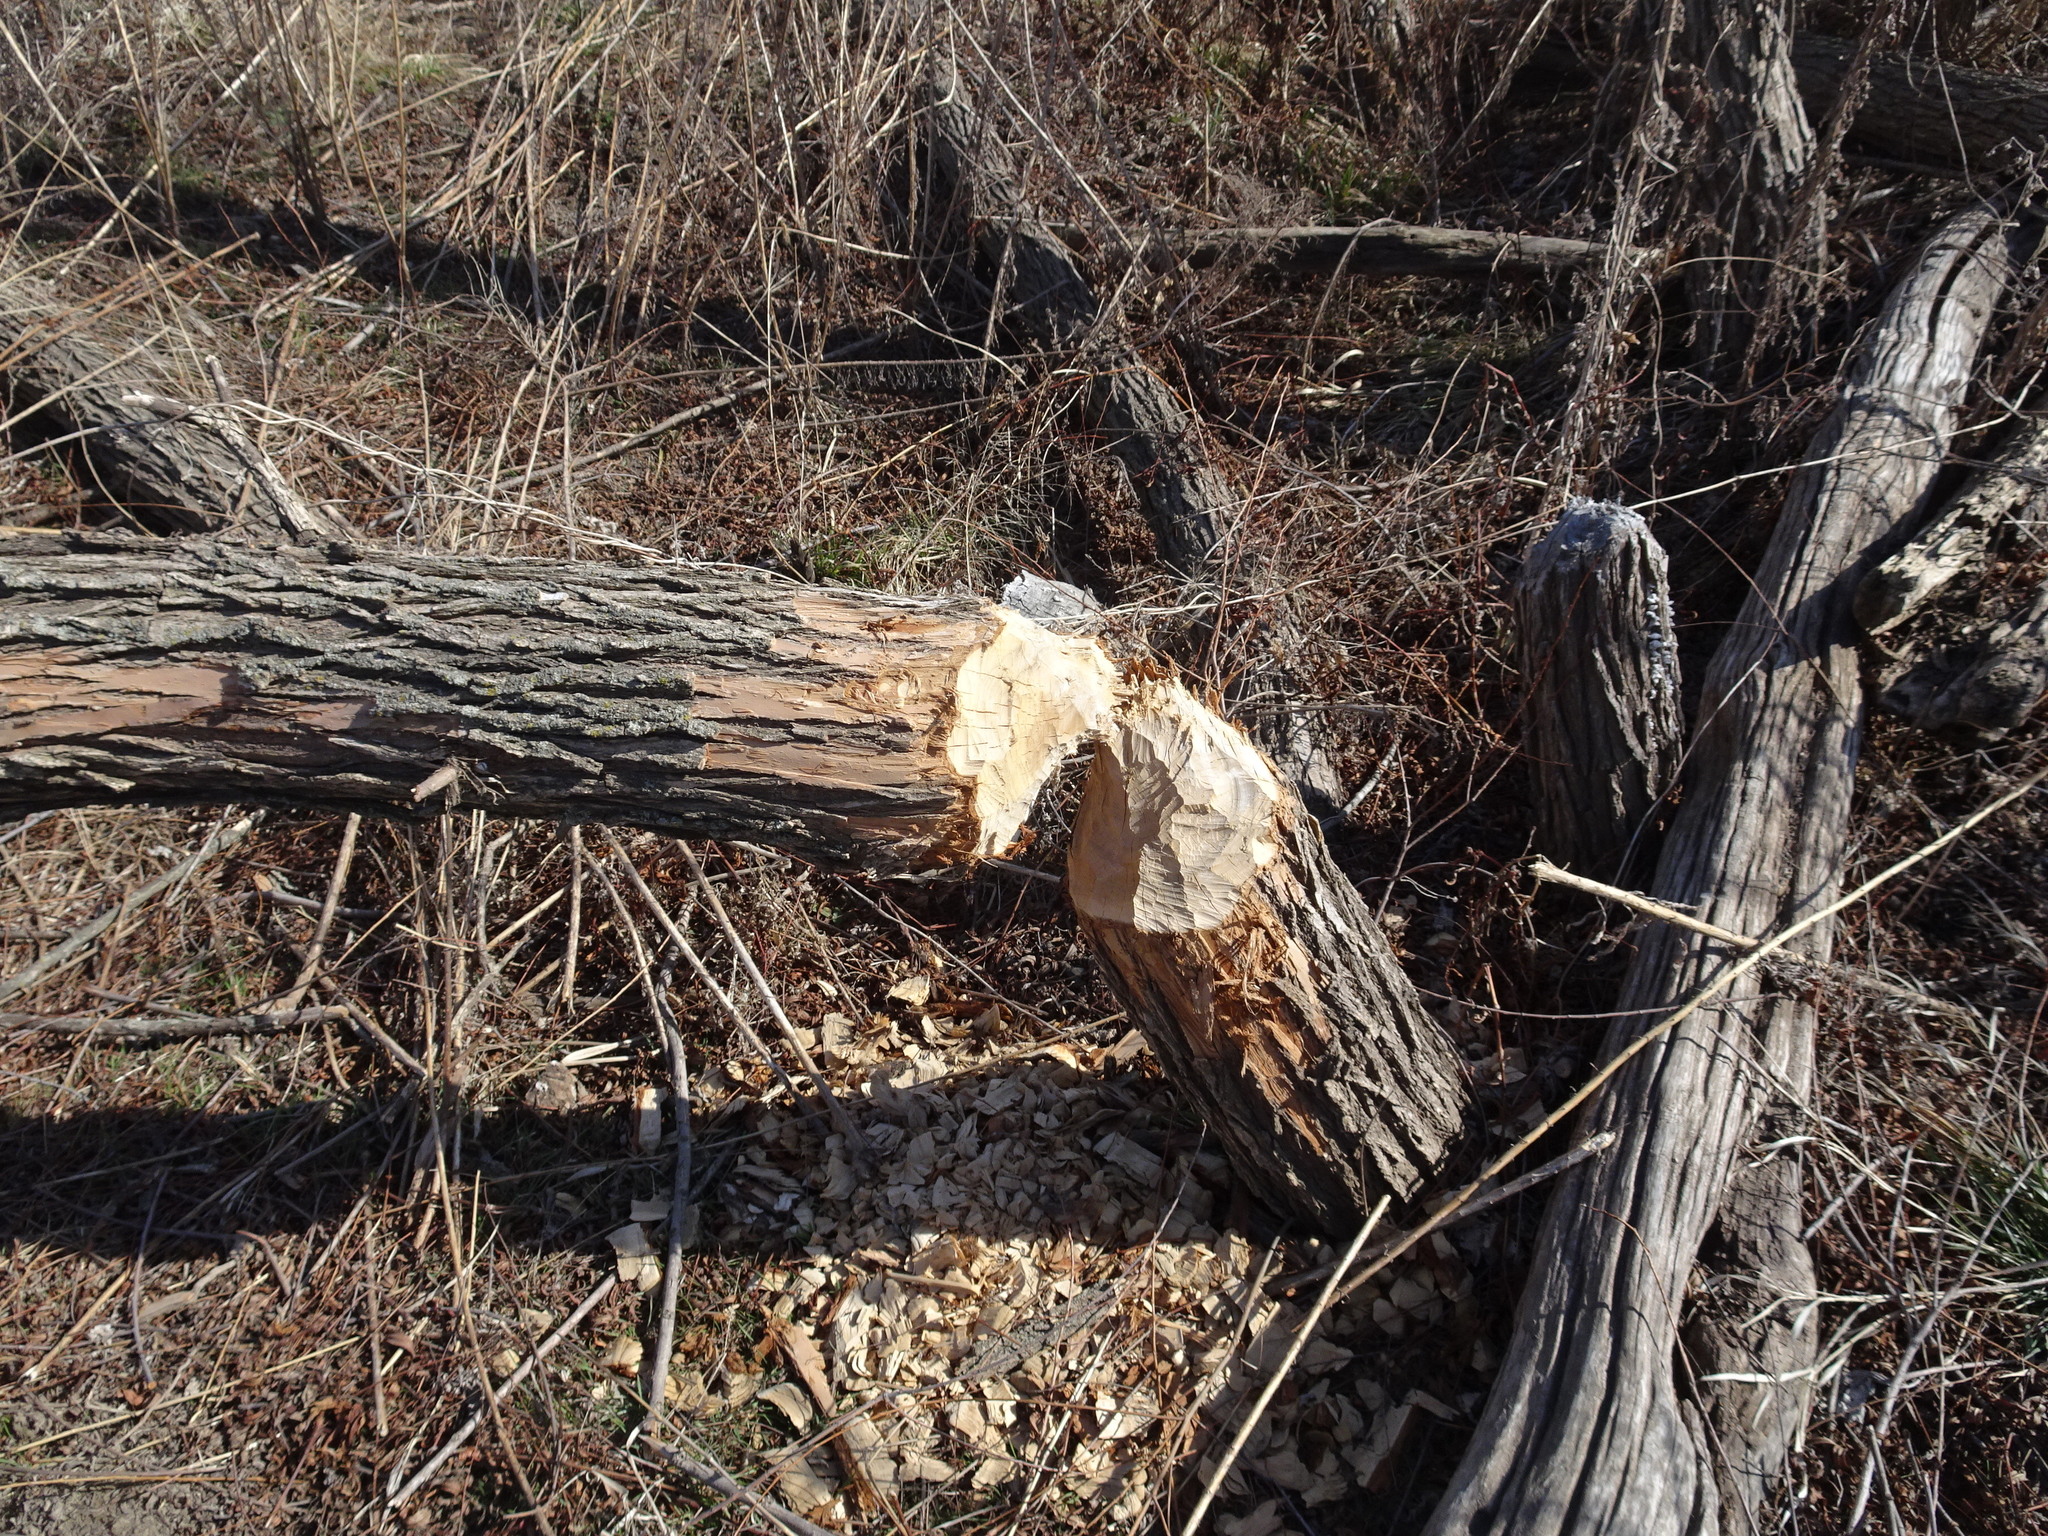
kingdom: Animalia
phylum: Chordata
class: Mammalia
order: Rodentia
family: Castoridae
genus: Castor
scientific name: Castor canadensis
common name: American beaver
